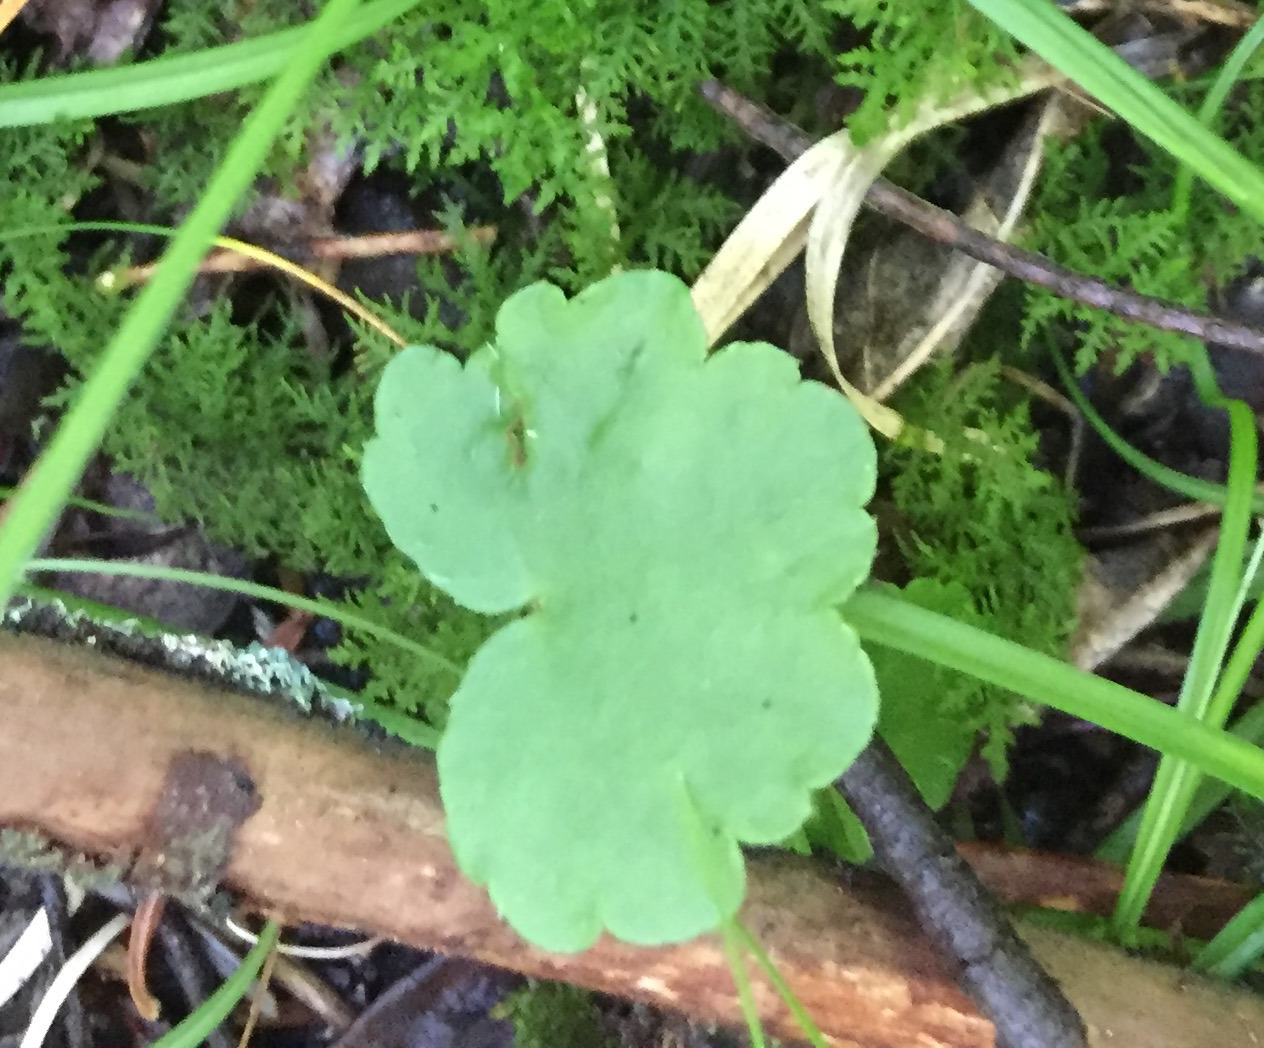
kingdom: Plantae
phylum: Tracheophyta
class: Magnoliopsida
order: Saxifragales
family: Saxifragaceae
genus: Mitella
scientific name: Mitella nuda
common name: Bare-stemmed bishop's-cap
